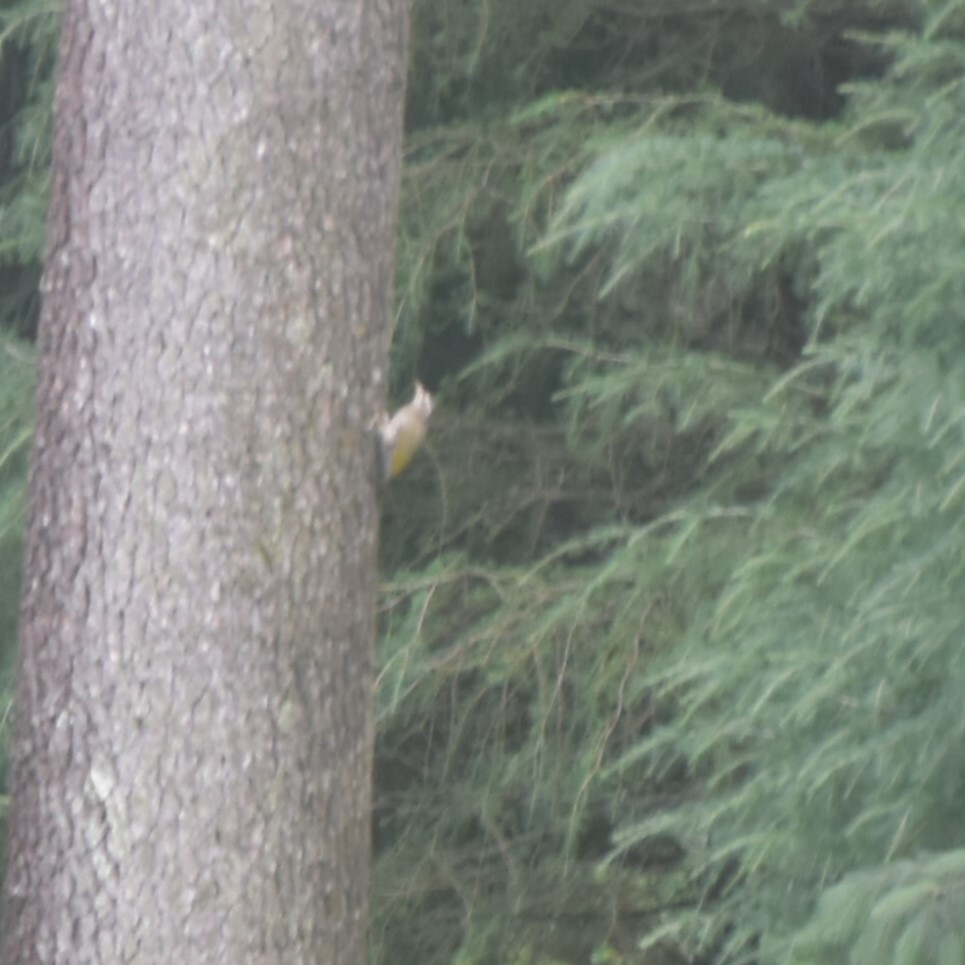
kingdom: Animalia
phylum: Chordata
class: Aves
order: Piciformes
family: Picidae
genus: Picus
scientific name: Picus canus
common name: Grey-headed woodpecker
